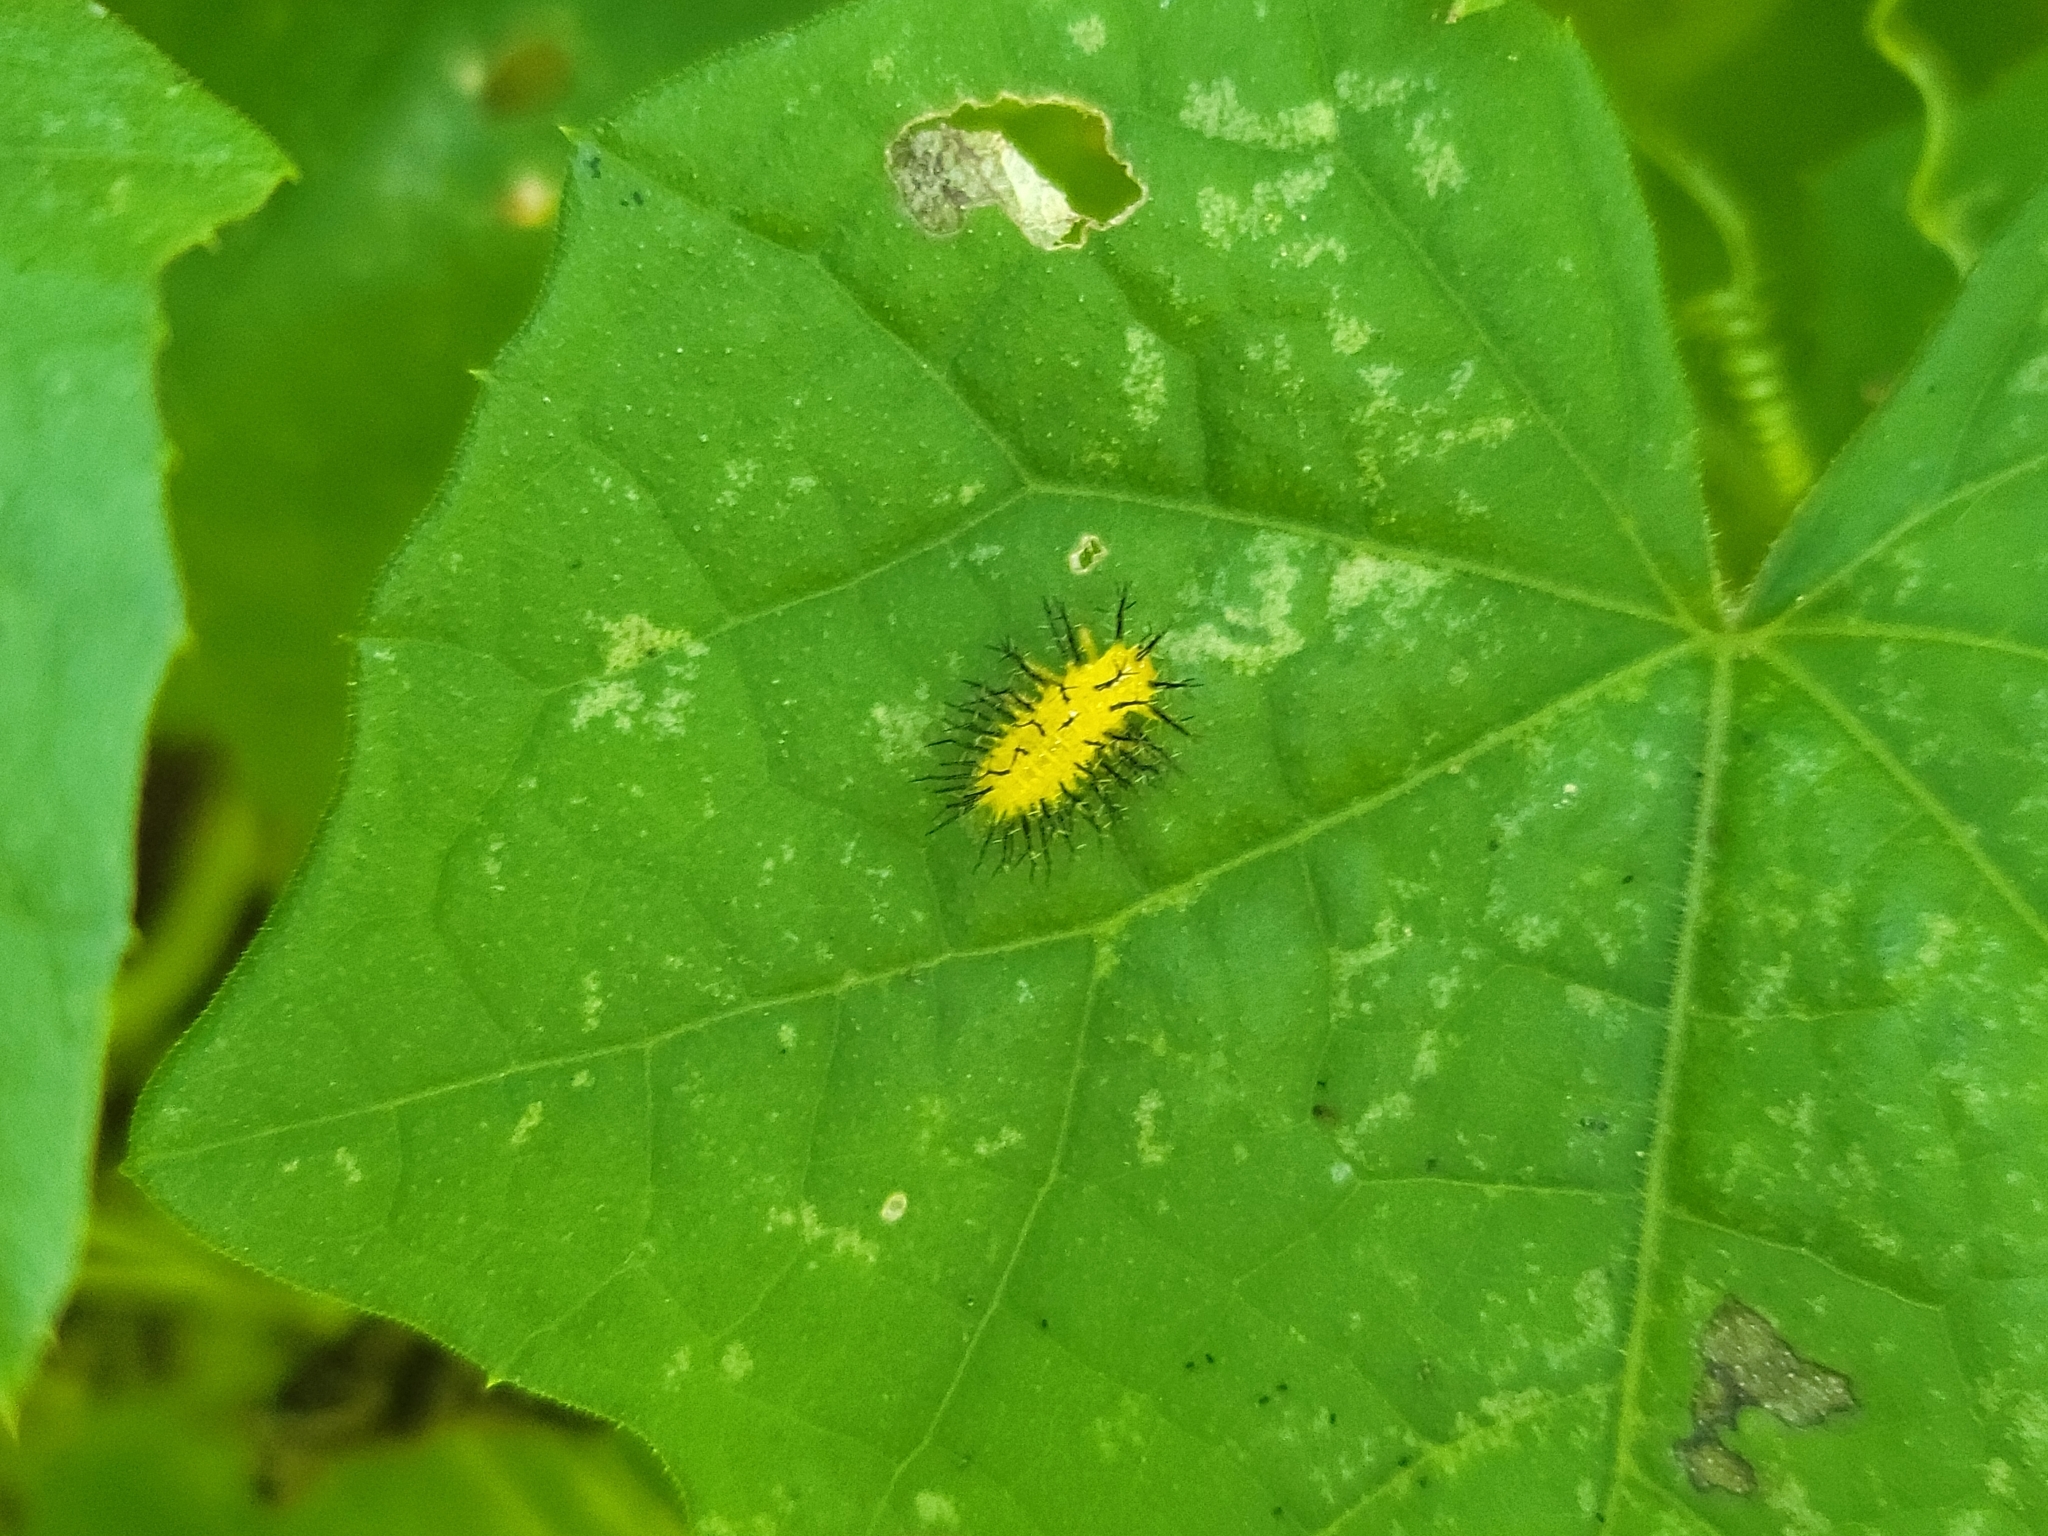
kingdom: Animalia
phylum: Arthropoda
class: Insecta
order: Coleoptera
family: Coccinellidae
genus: Epilachna
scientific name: Epilachna borealis
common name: Squash beetle
